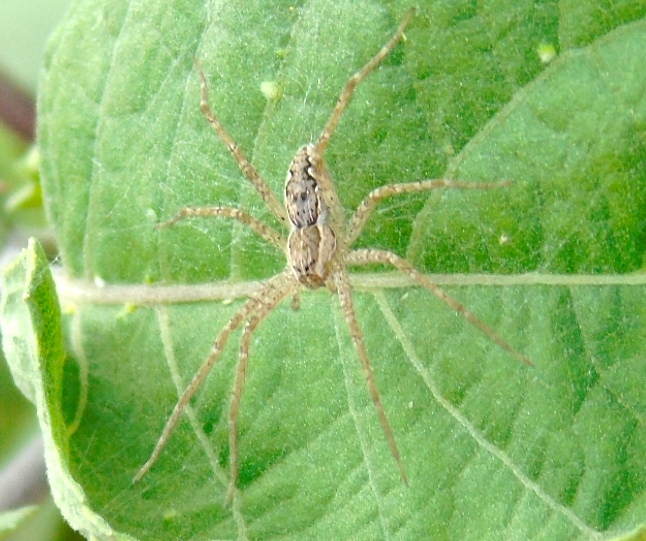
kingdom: Animalia
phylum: Arthropoda
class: Arachnida
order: Araneae
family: Pisauridae
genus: Tinus
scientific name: Tinus
